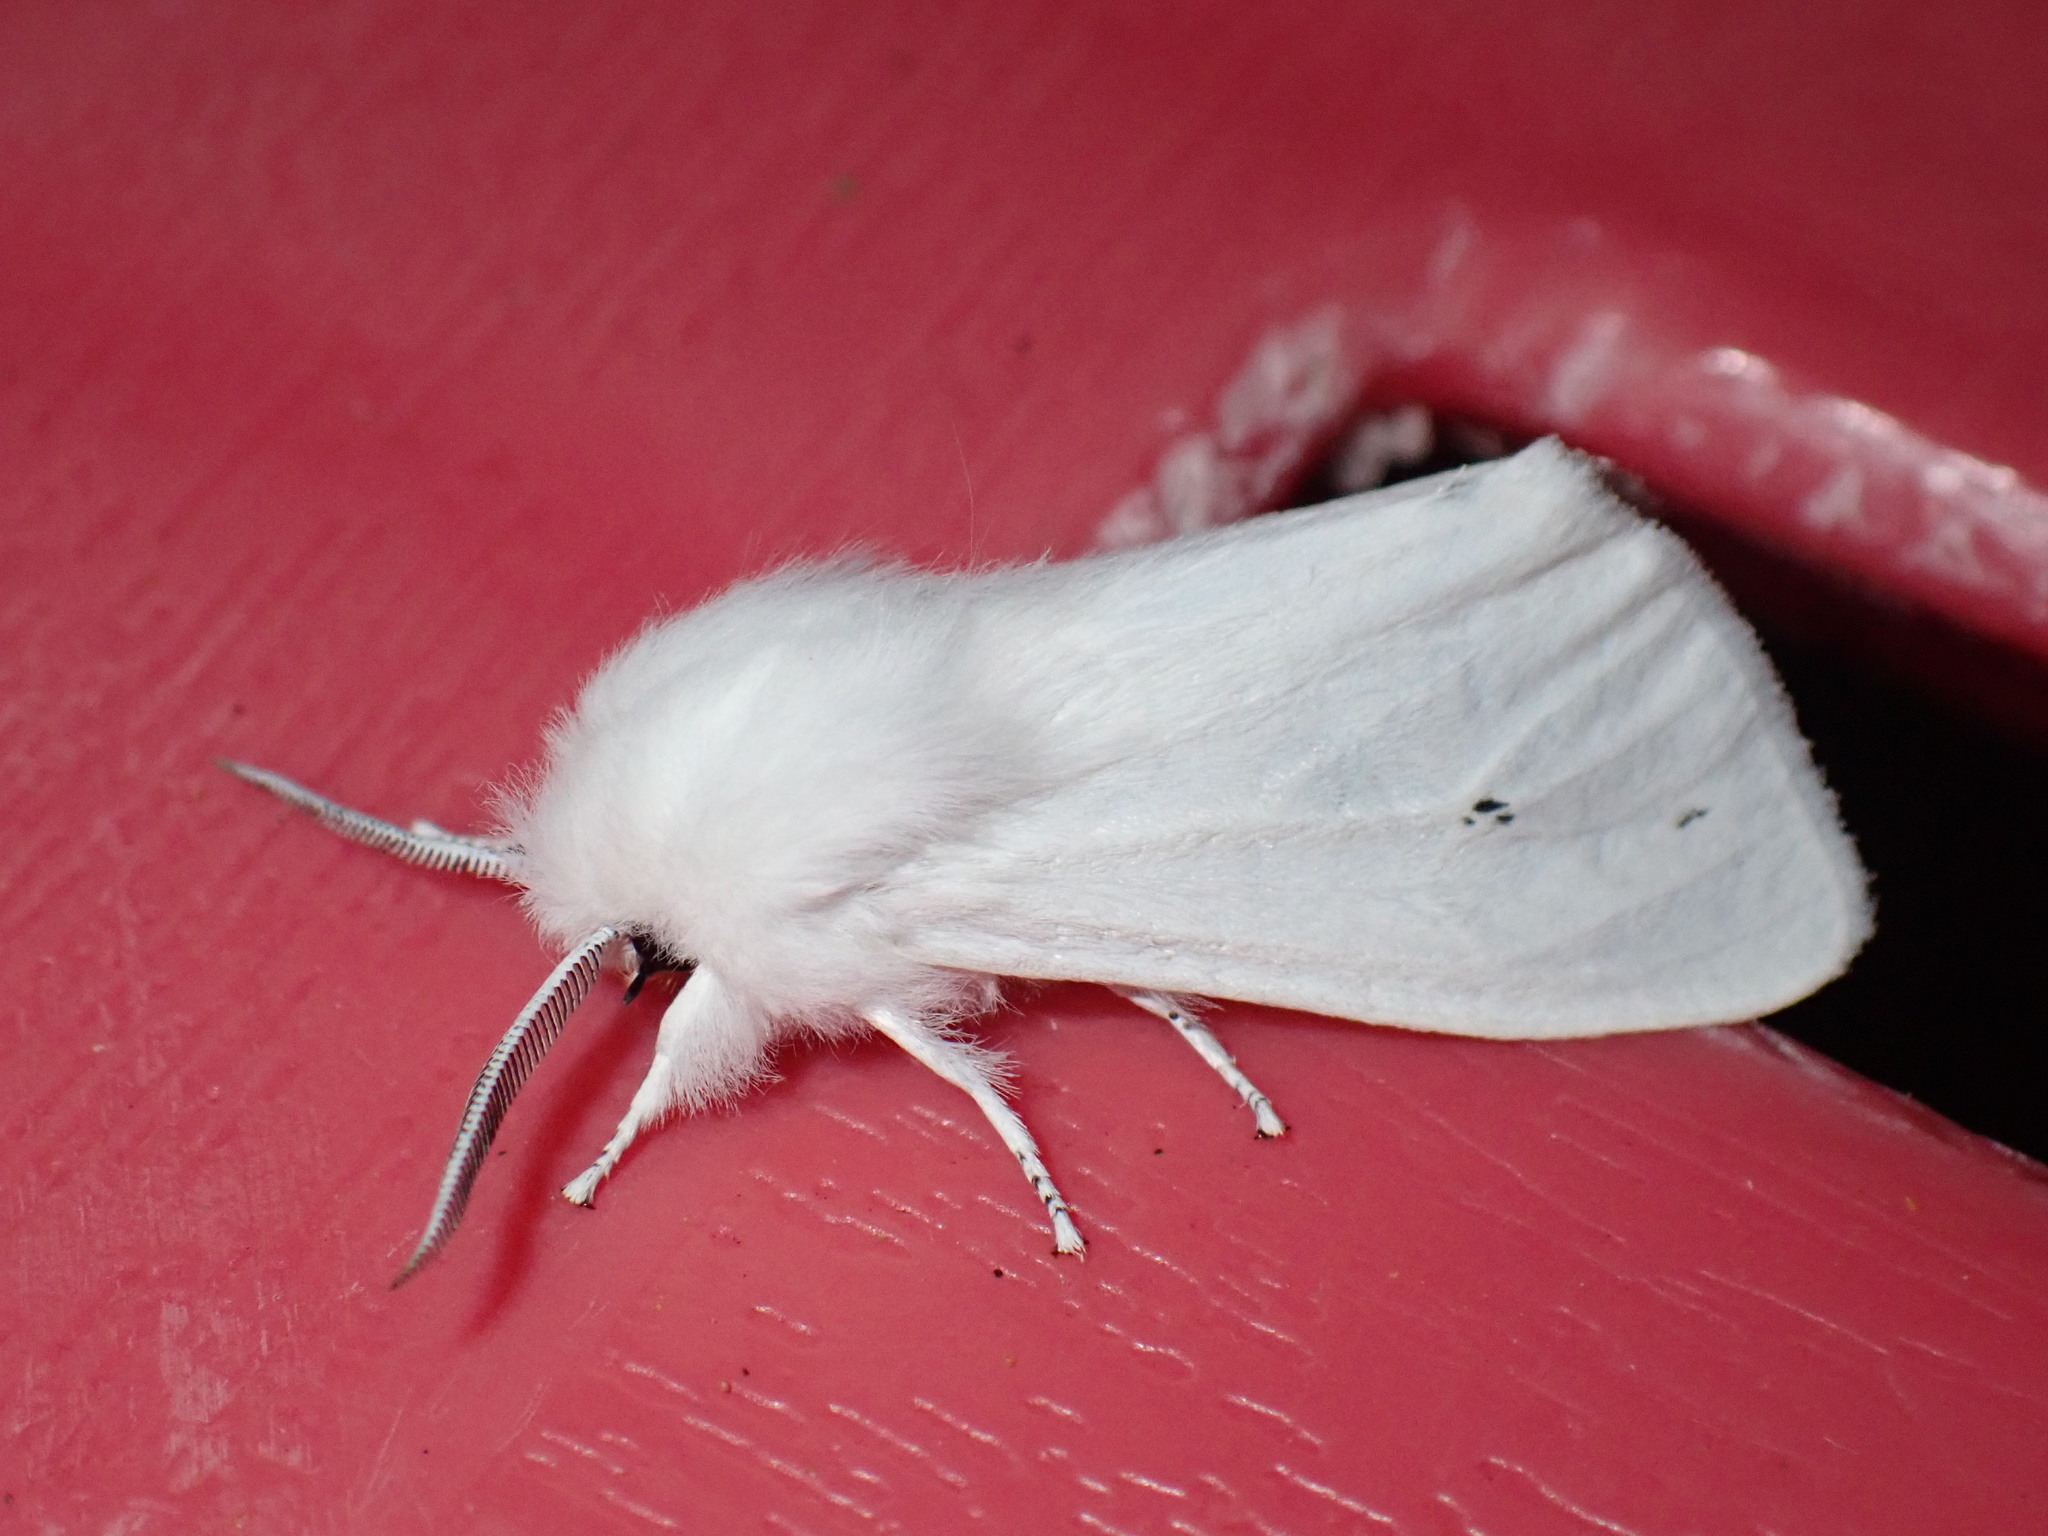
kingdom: Animalia
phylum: Arthropoda
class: Insecta
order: Lepidoptera
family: Erebidae
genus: Spilosoma
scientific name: Spilosoma virginica
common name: Virginia tiger moth
